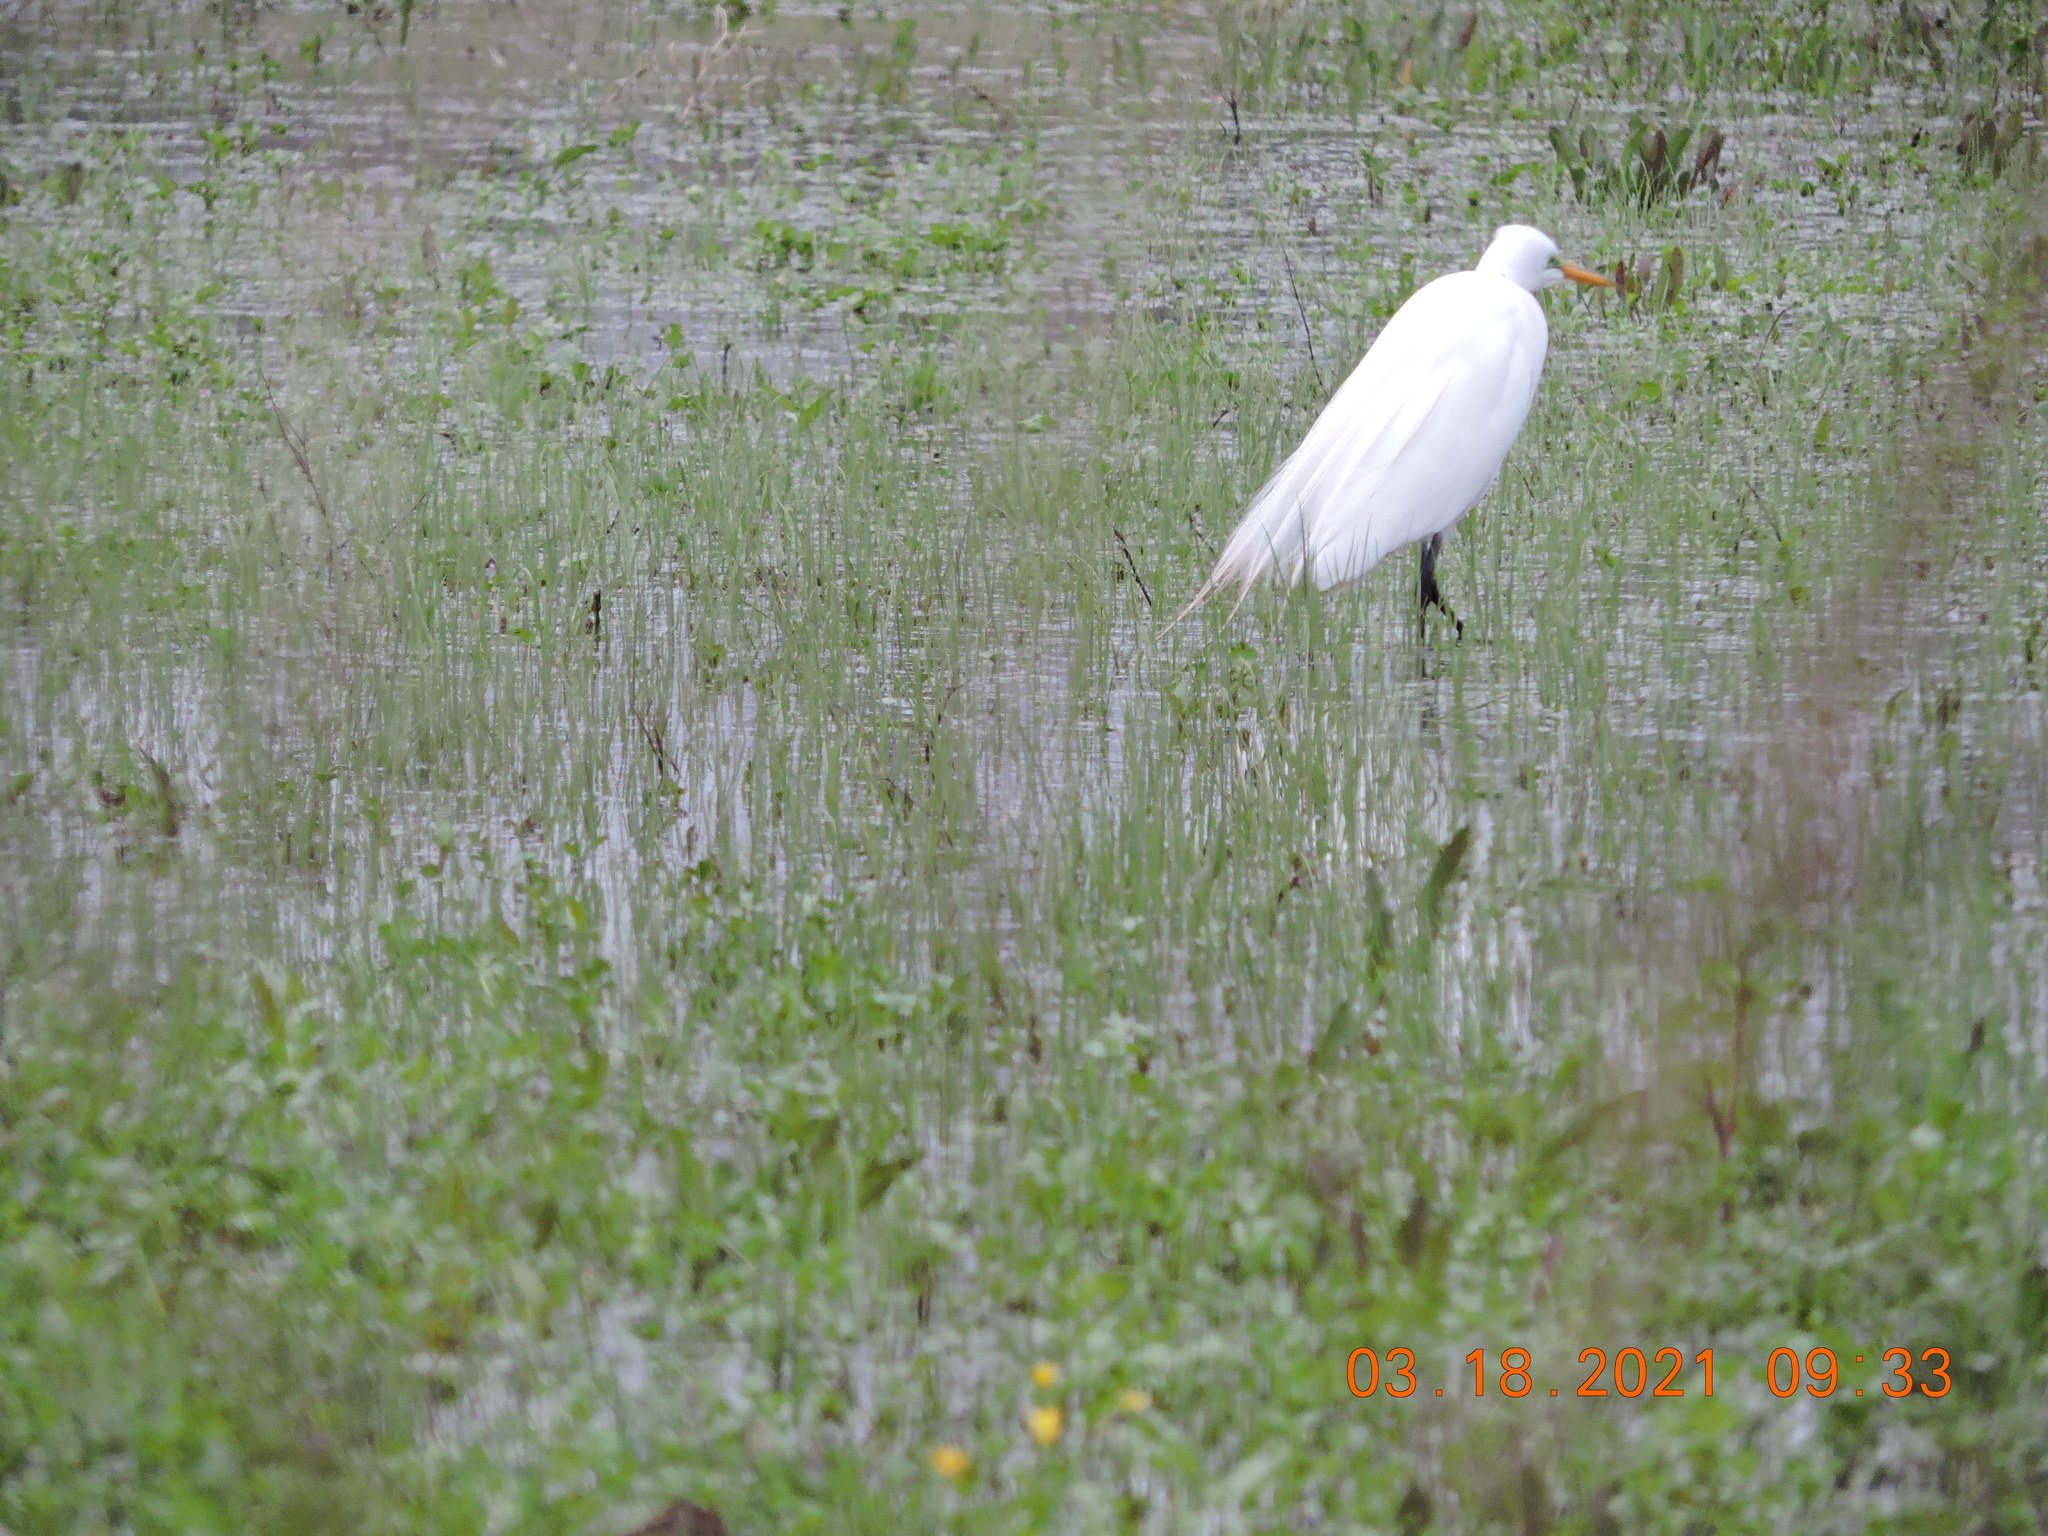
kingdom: Animalia
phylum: Chordata
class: Aves
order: Pelecaniformes
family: Ardeidae
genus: Ardea
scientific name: Ardea alba
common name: Great egret
